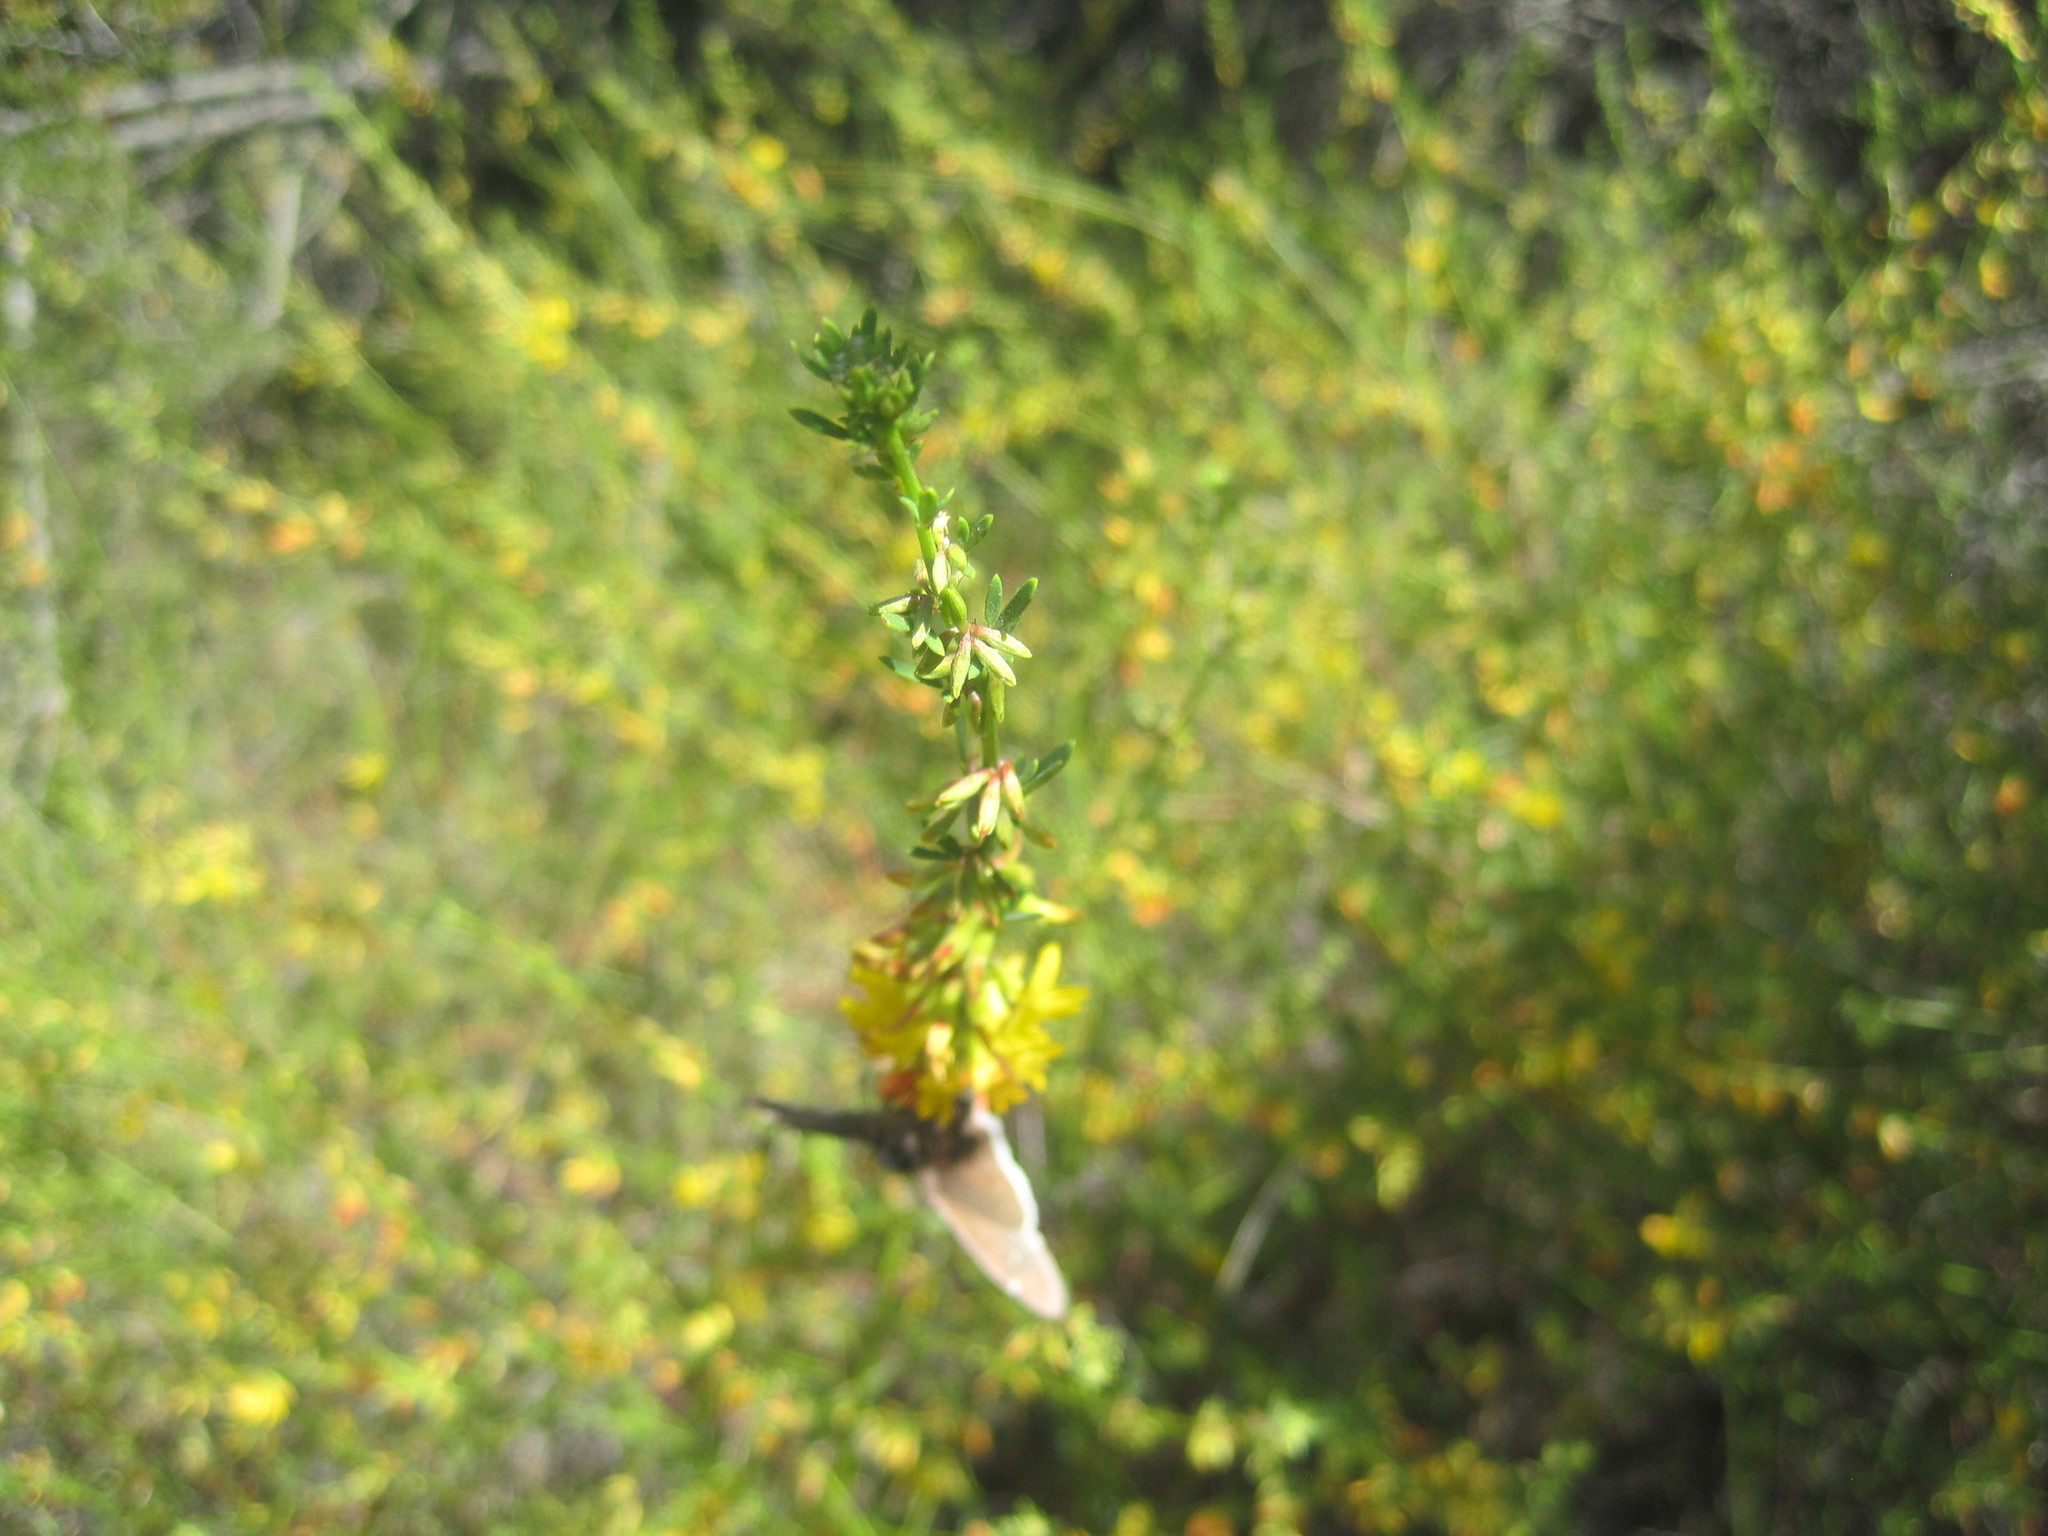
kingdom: Plantae
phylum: Tracheophyta
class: Magnoliopsida
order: Fabales
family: Fabaceae
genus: Acmispon
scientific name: Acmispon glaber
